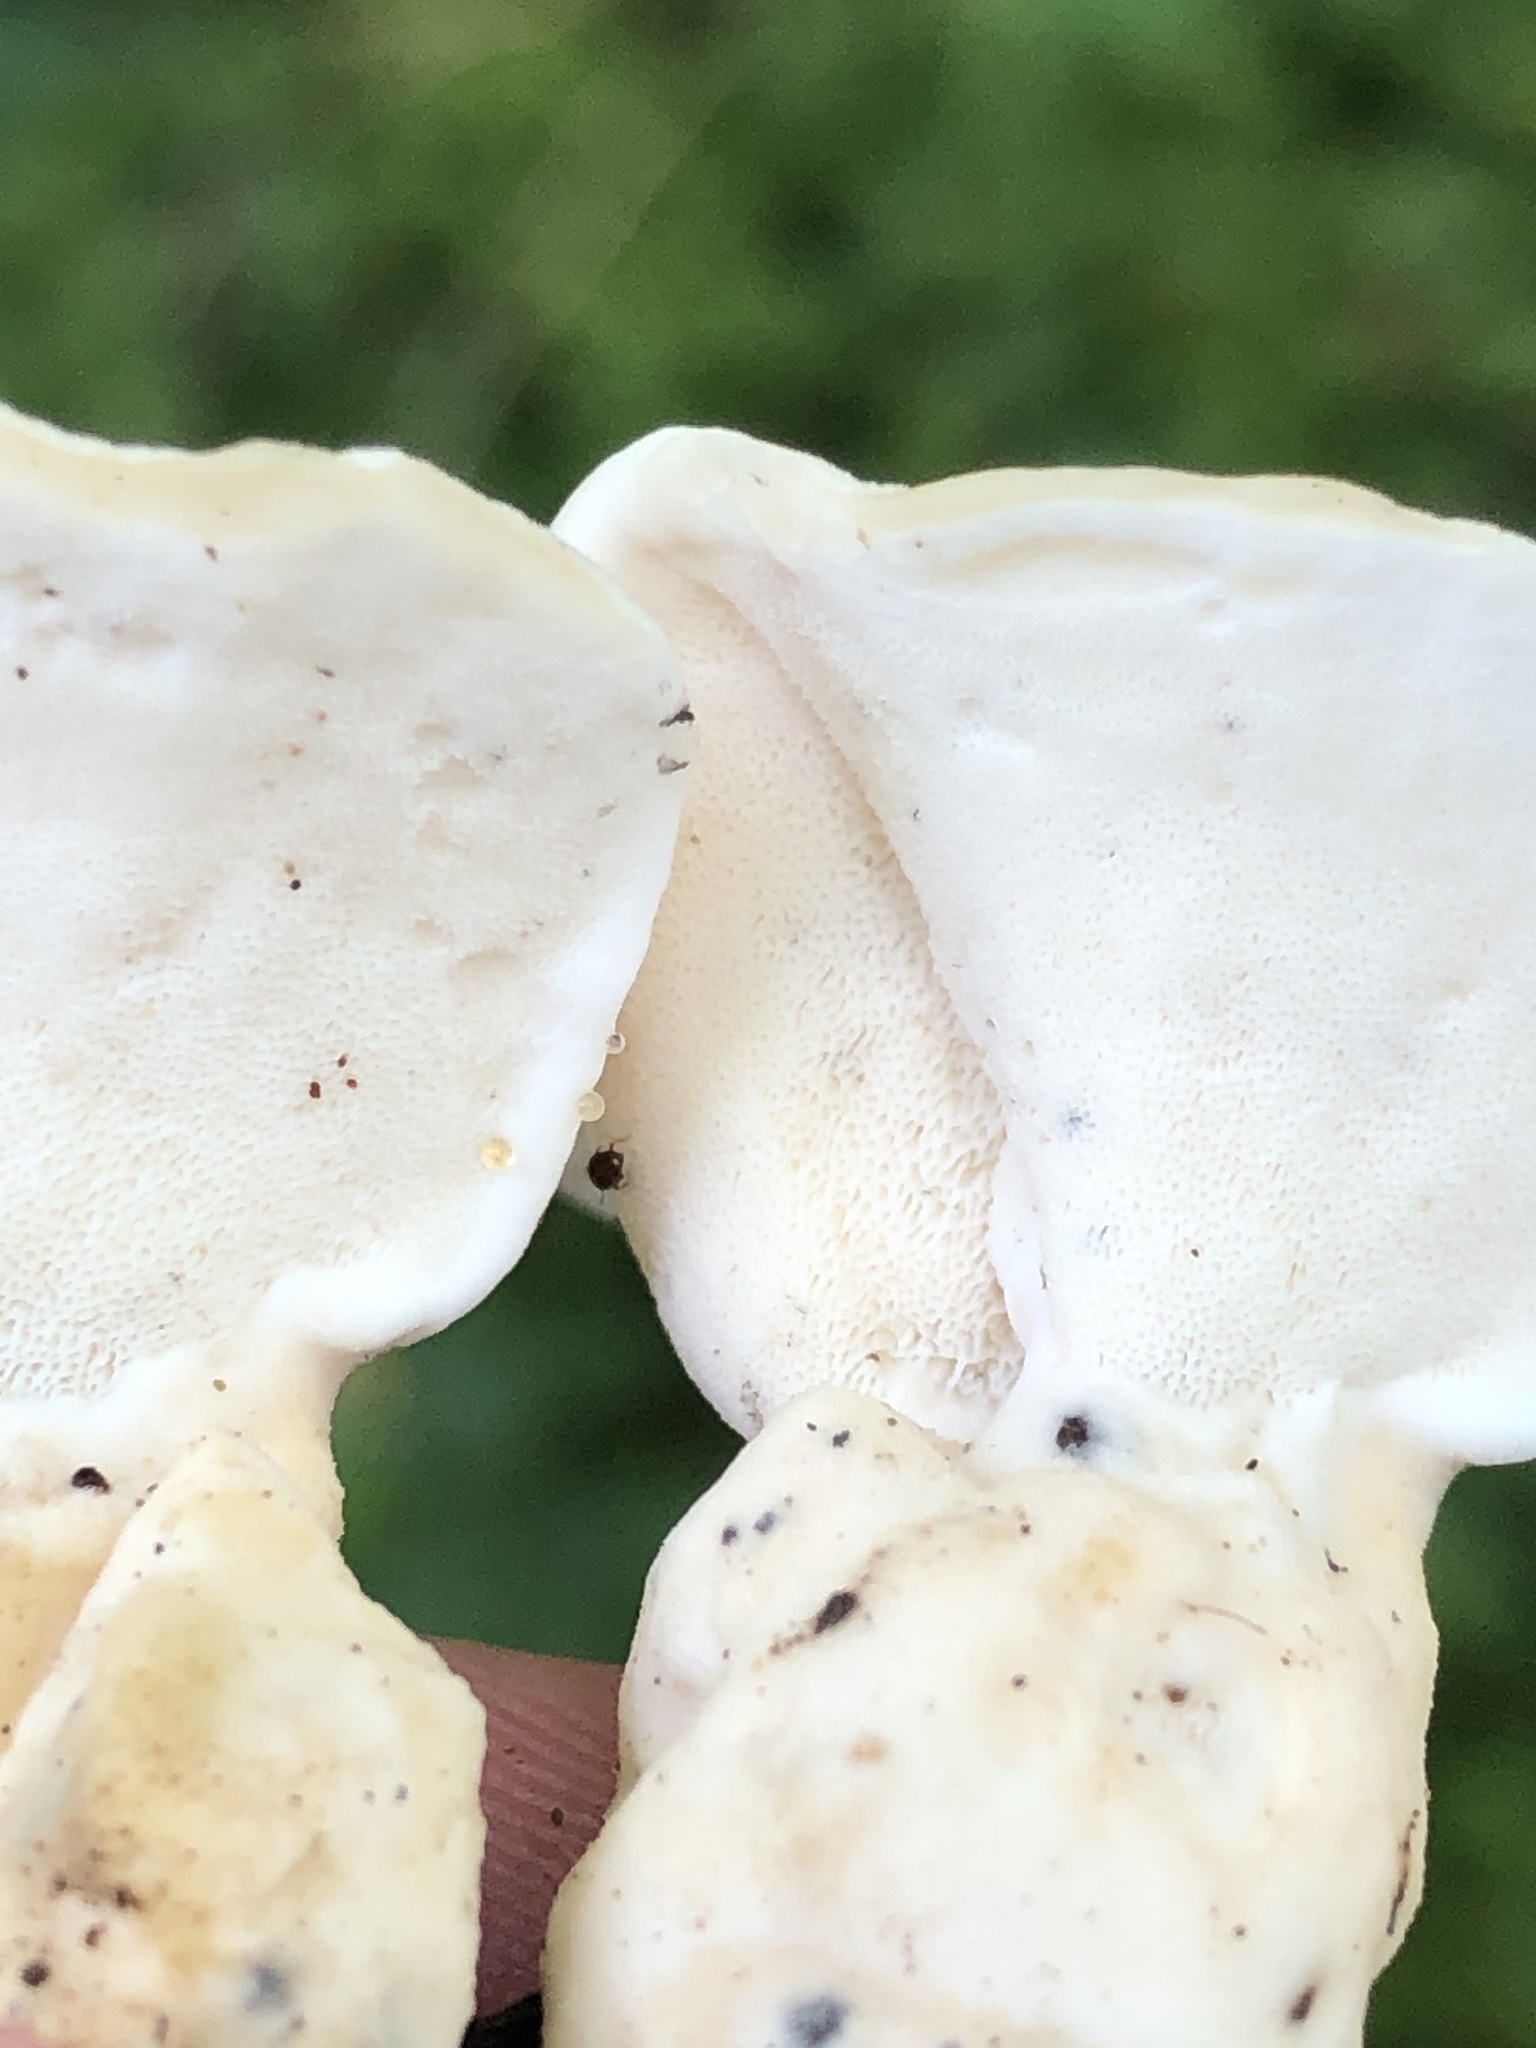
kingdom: Fungi
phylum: Basidiomycota
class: Agaricomycetes
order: Polyporales
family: Steccherinaceae
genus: Loweomyces
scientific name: Loweomyces fractipes
